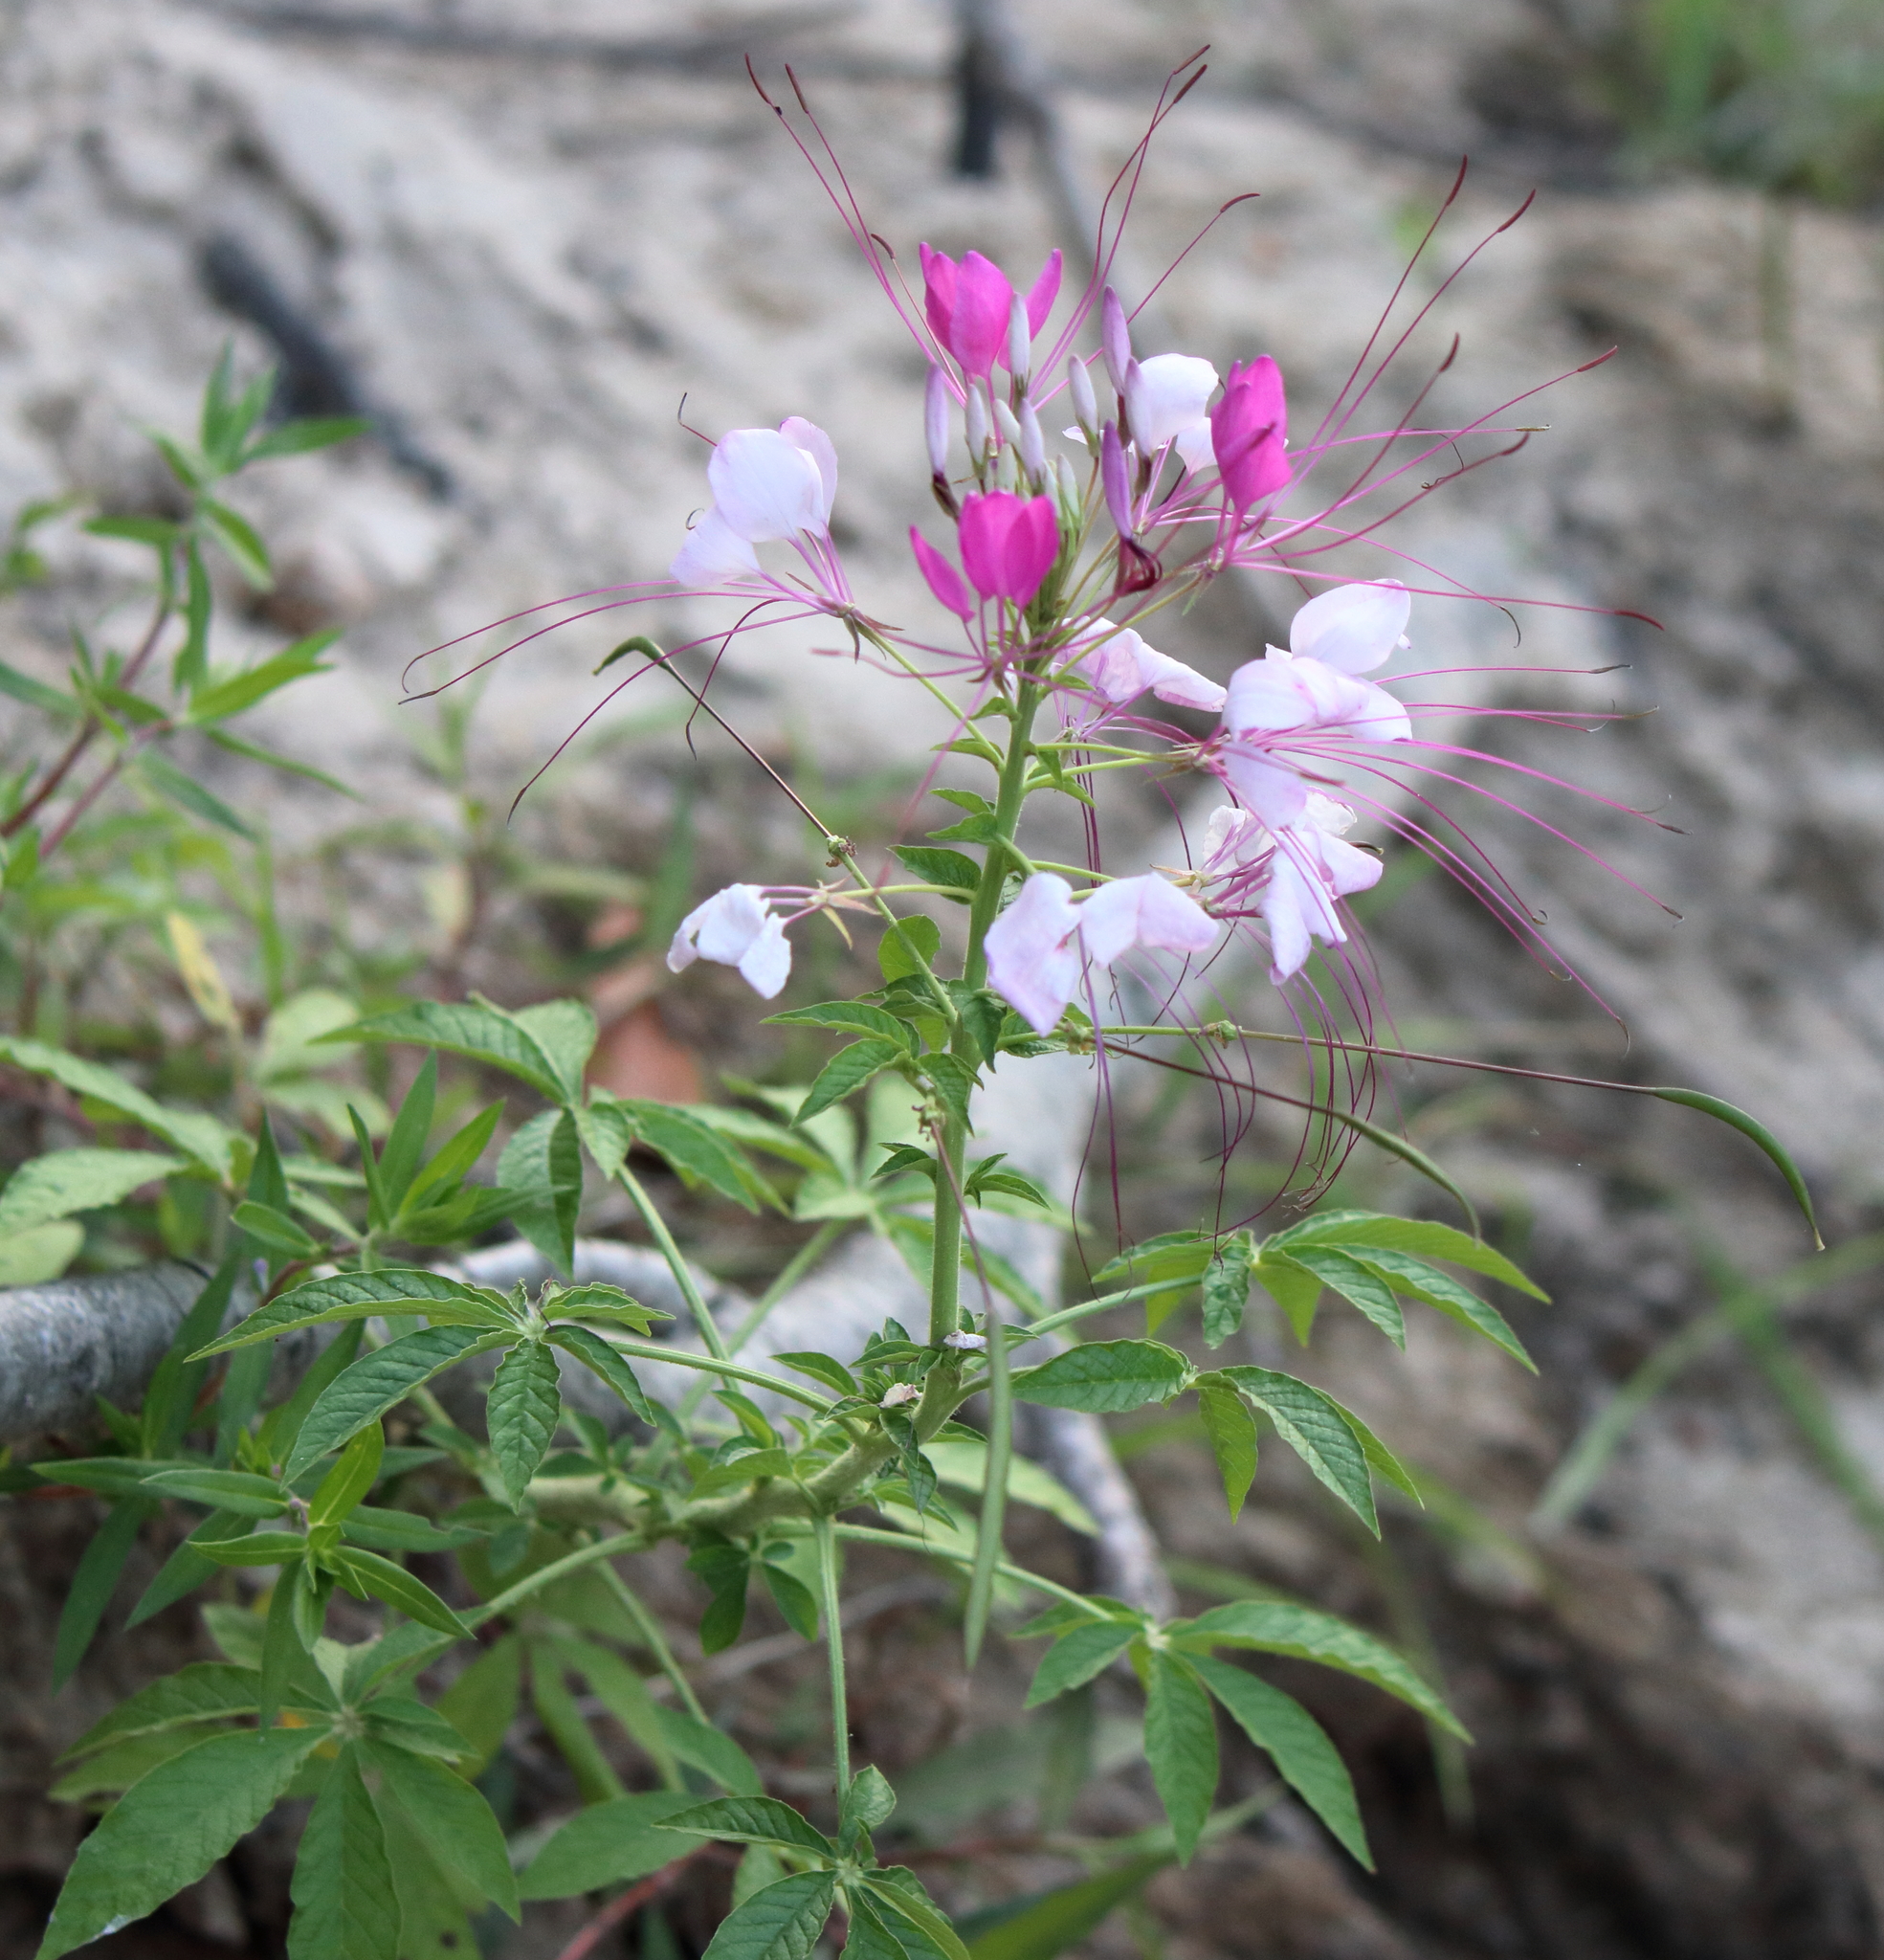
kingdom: Plantae
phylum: Tracheophyta
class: Magnoliopsida
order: Brassicales
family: Cleomaceae
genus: Tarenaya
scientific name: Tarenaya houtteana
